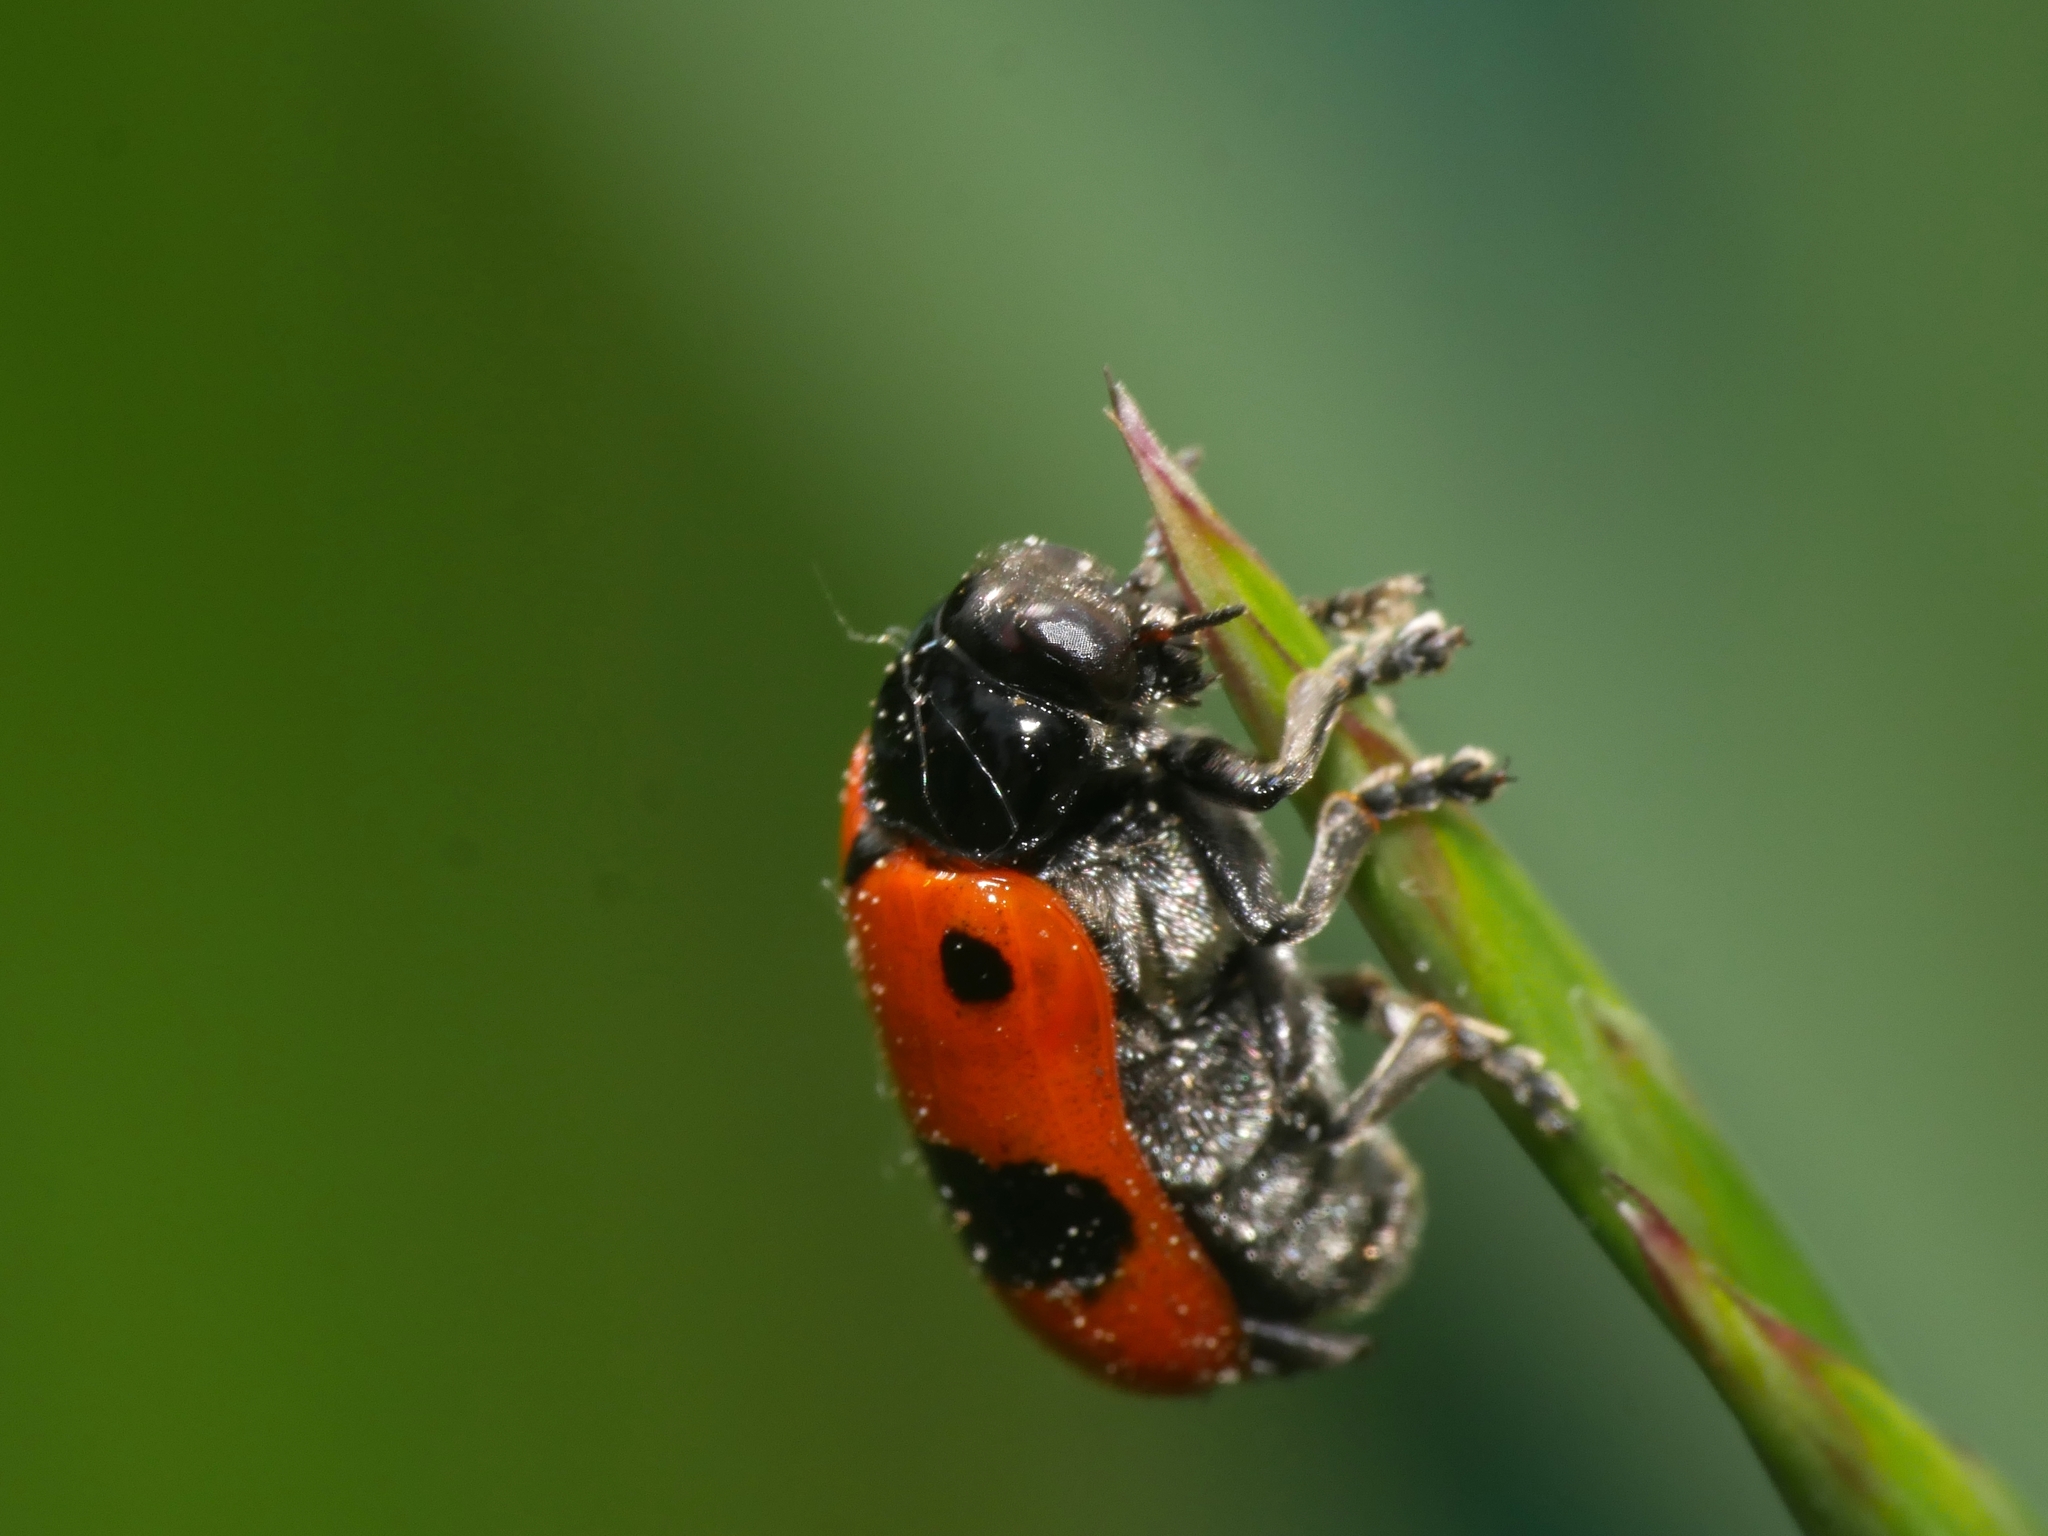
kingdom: Animalia
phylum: Arthropoda
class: Insecta
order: Coleoptera
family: Chrysomelidae
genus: Clytra
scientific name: Clytra laeviuscula
